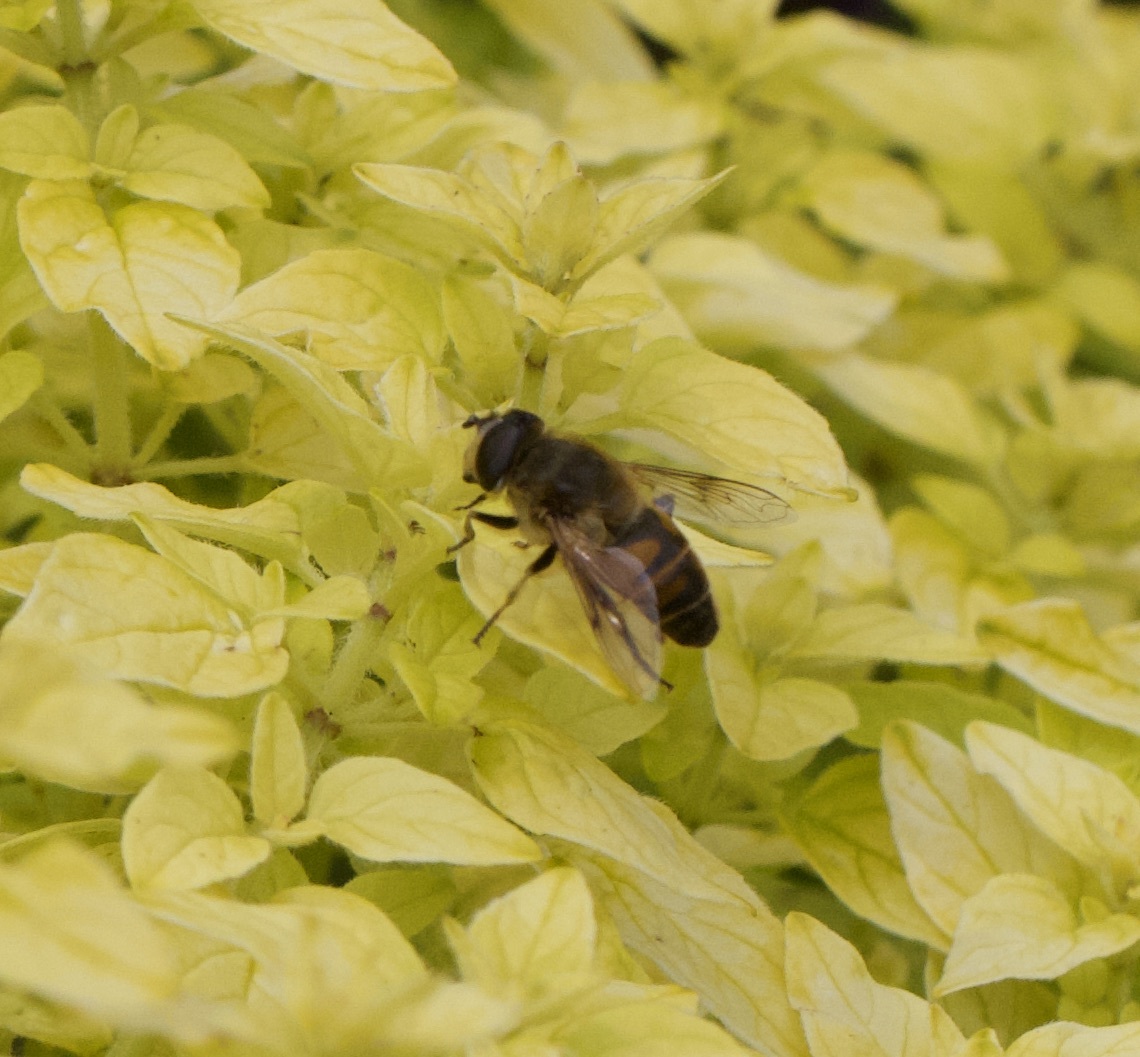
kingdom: Animalia
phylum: Arthropoda
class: Insecta
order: Diptera
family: Syrphidae
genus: Eristalis
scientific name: Eristalis tenax
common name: Drone fly
